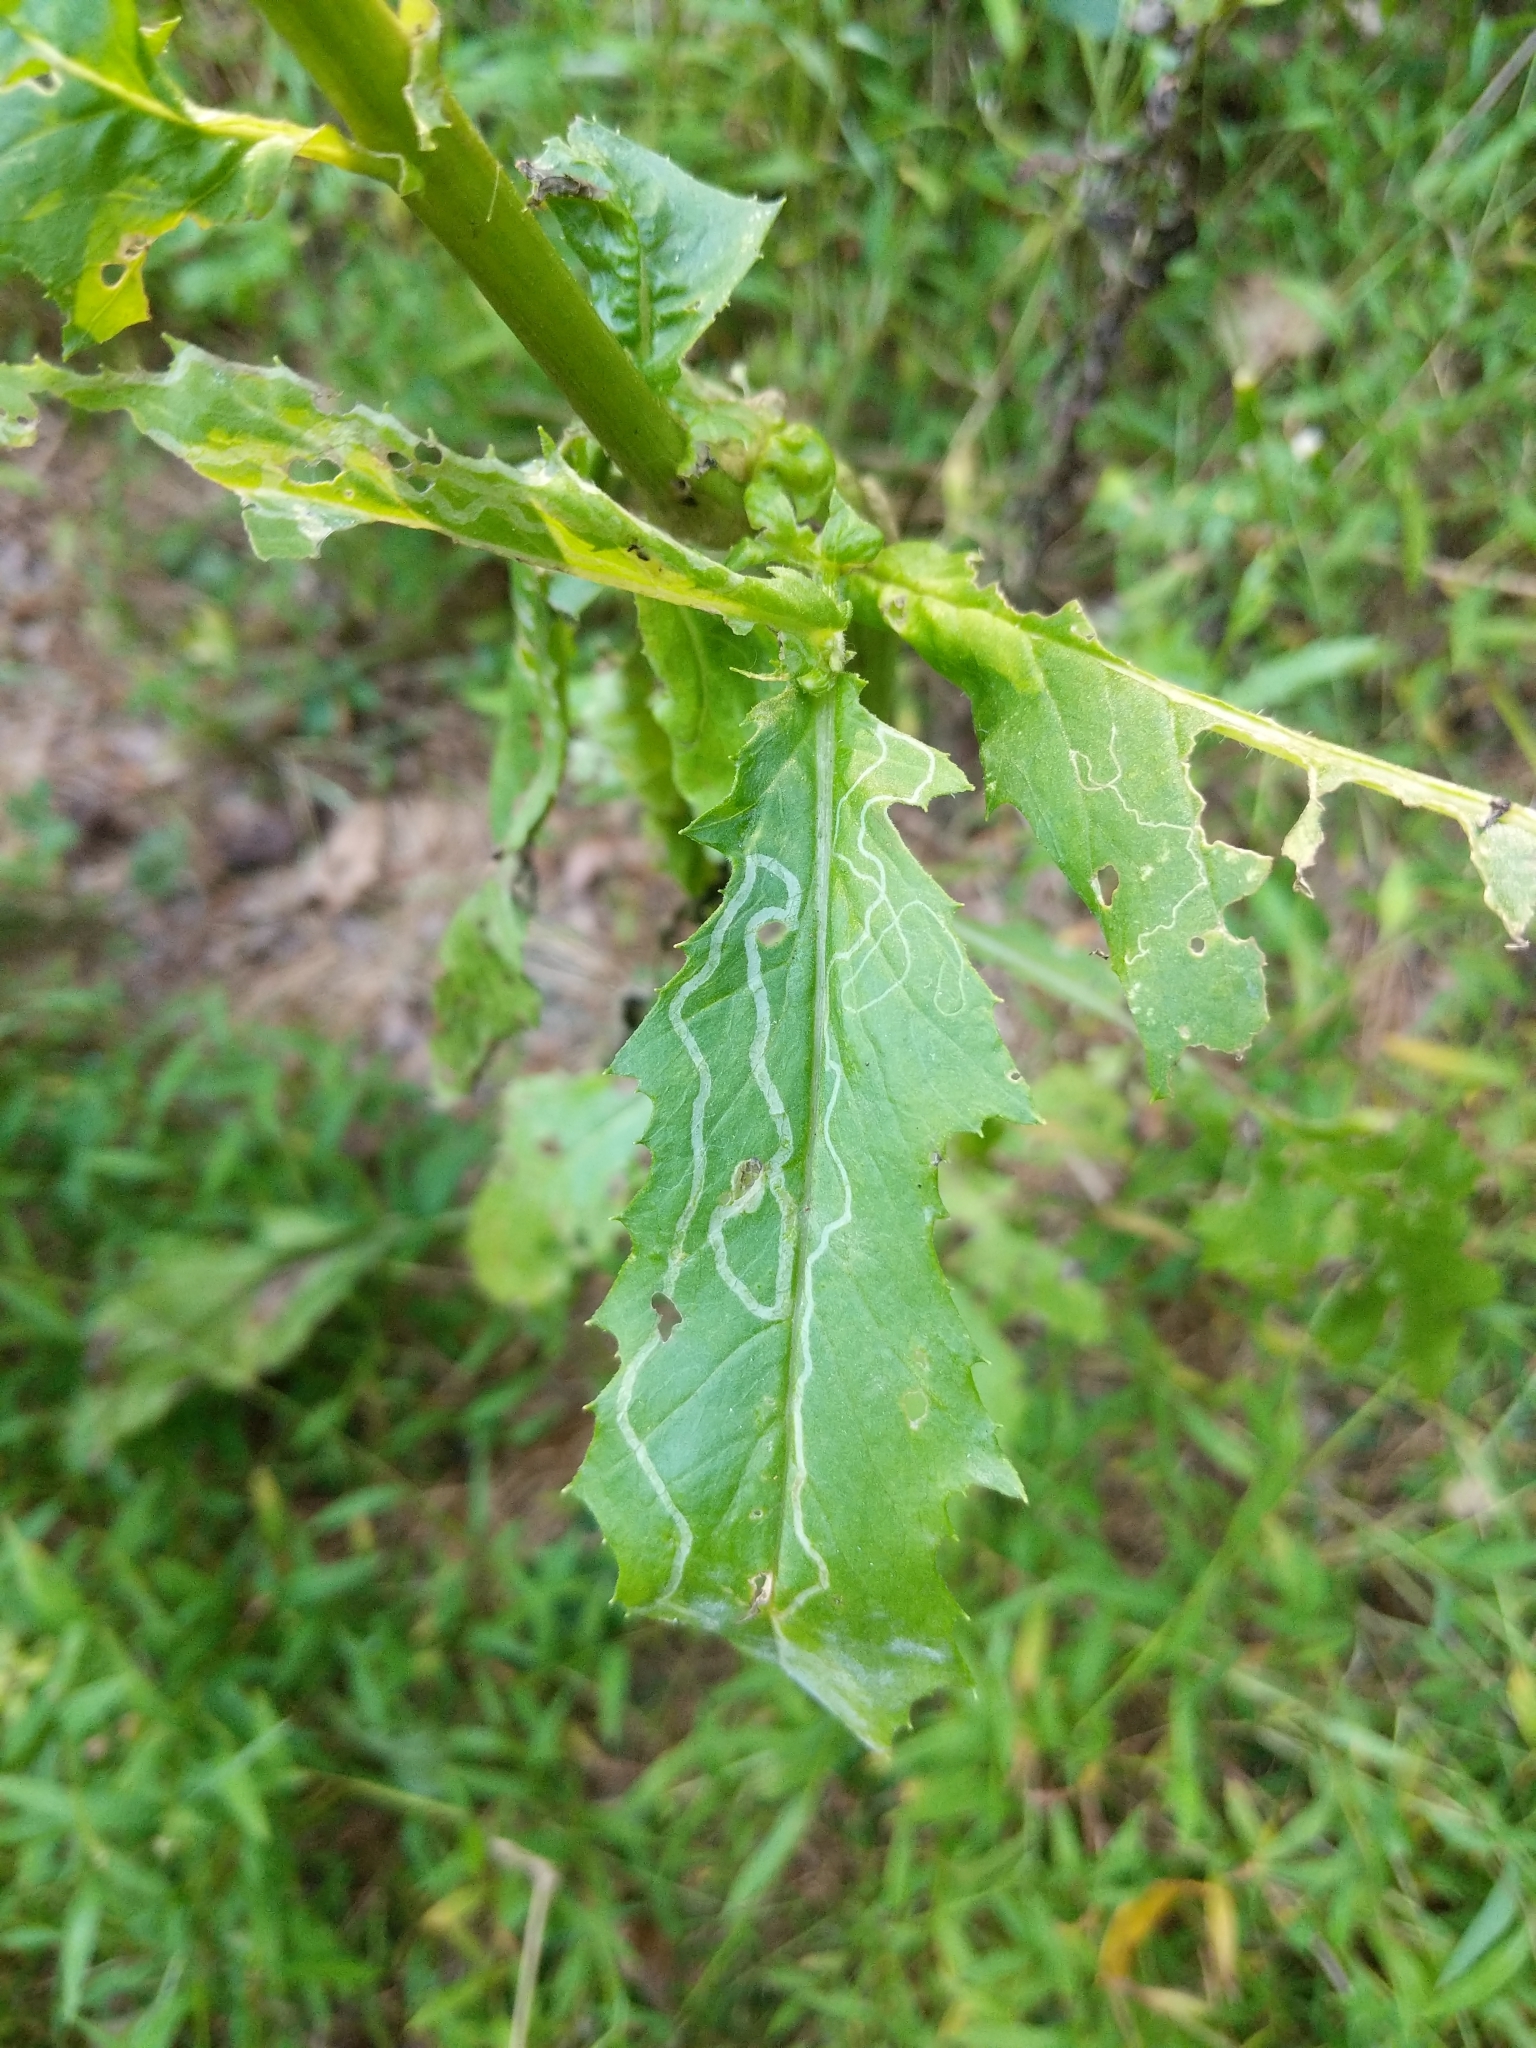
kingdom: Animalia
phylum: Arthropoda
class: Insecta
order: Lepidoptera
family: Gracillariidae
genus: Phyllocnistis
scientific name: Phyllocnistis insignis
